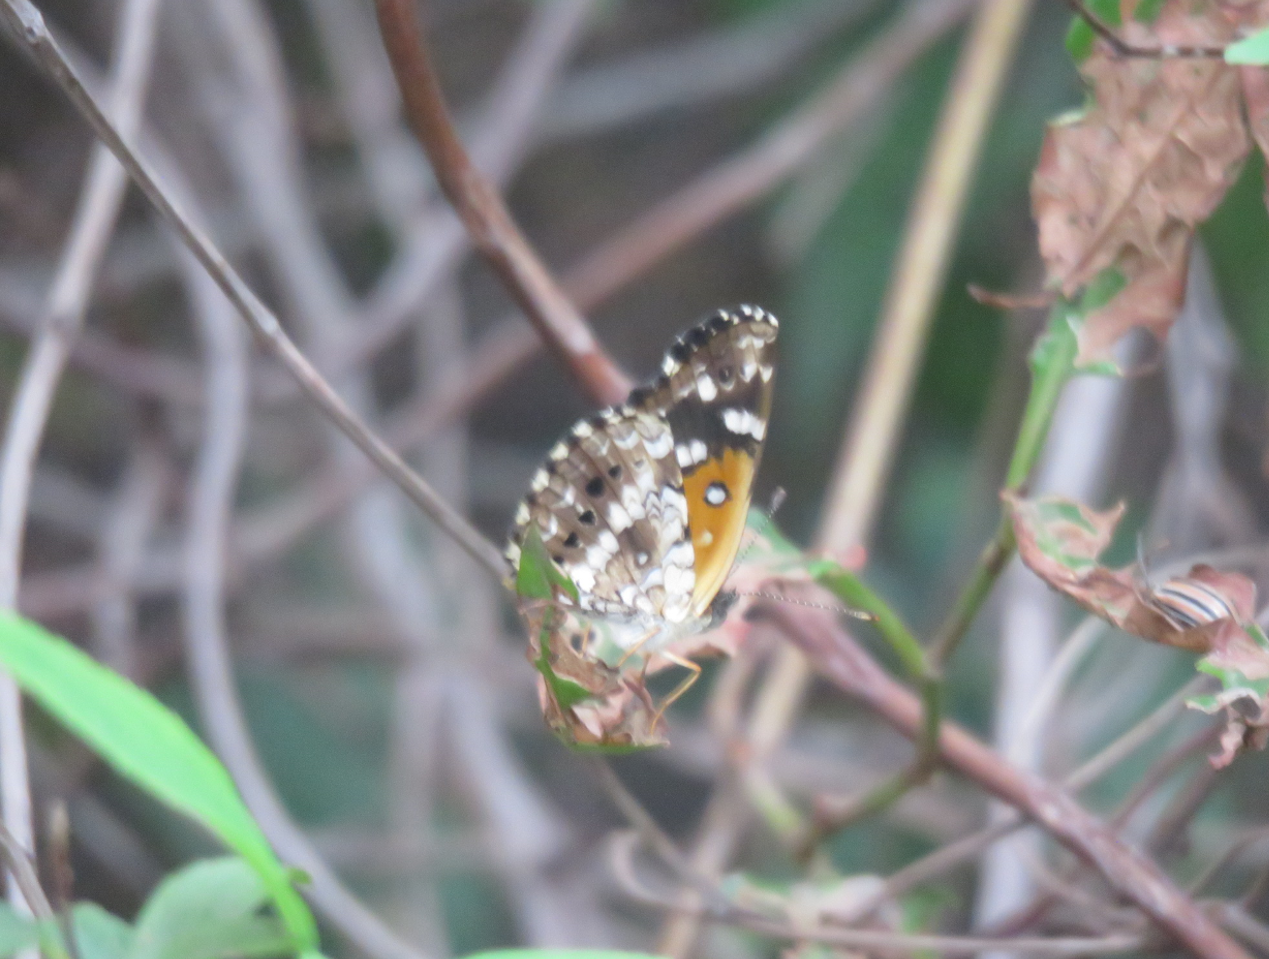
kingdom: Animalia
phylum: Arthropoda
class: Insecta
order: Lepidoptera
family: Nymphalidae
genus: Ortilia
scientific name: Ortilia ithra
